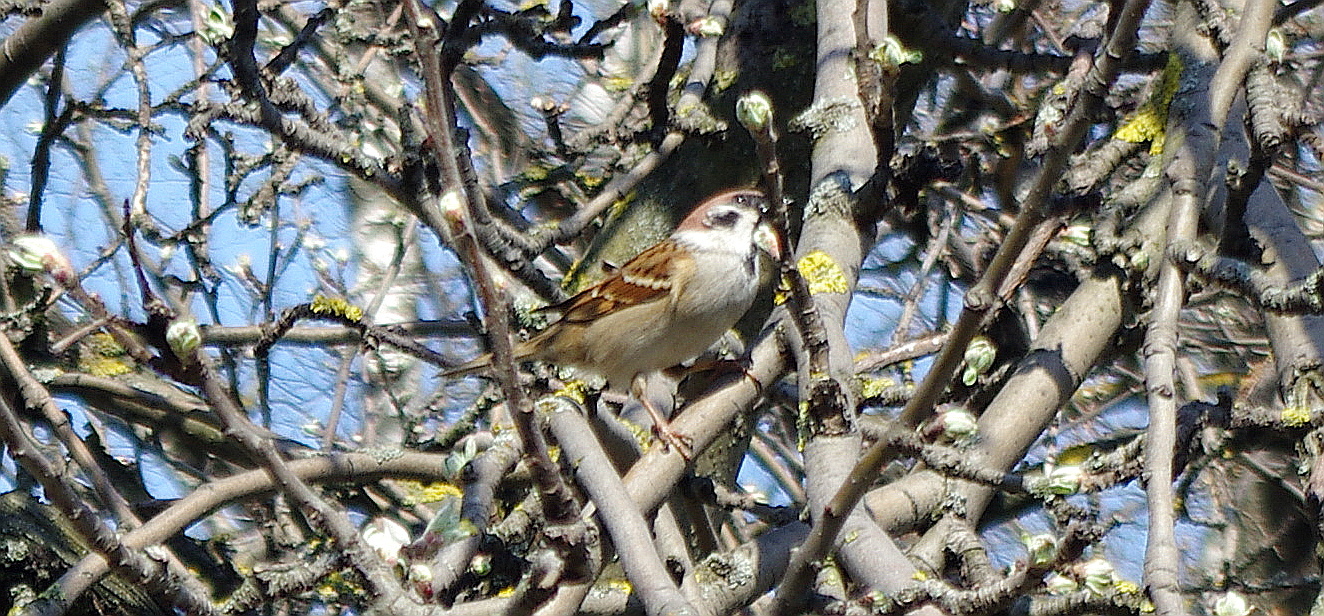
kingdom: Animalia
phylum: Chordata
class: Aves
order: Passeriformes
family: Passeridae
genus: Passer
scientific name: Passer montanus
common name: Eurasian tree sparrow
